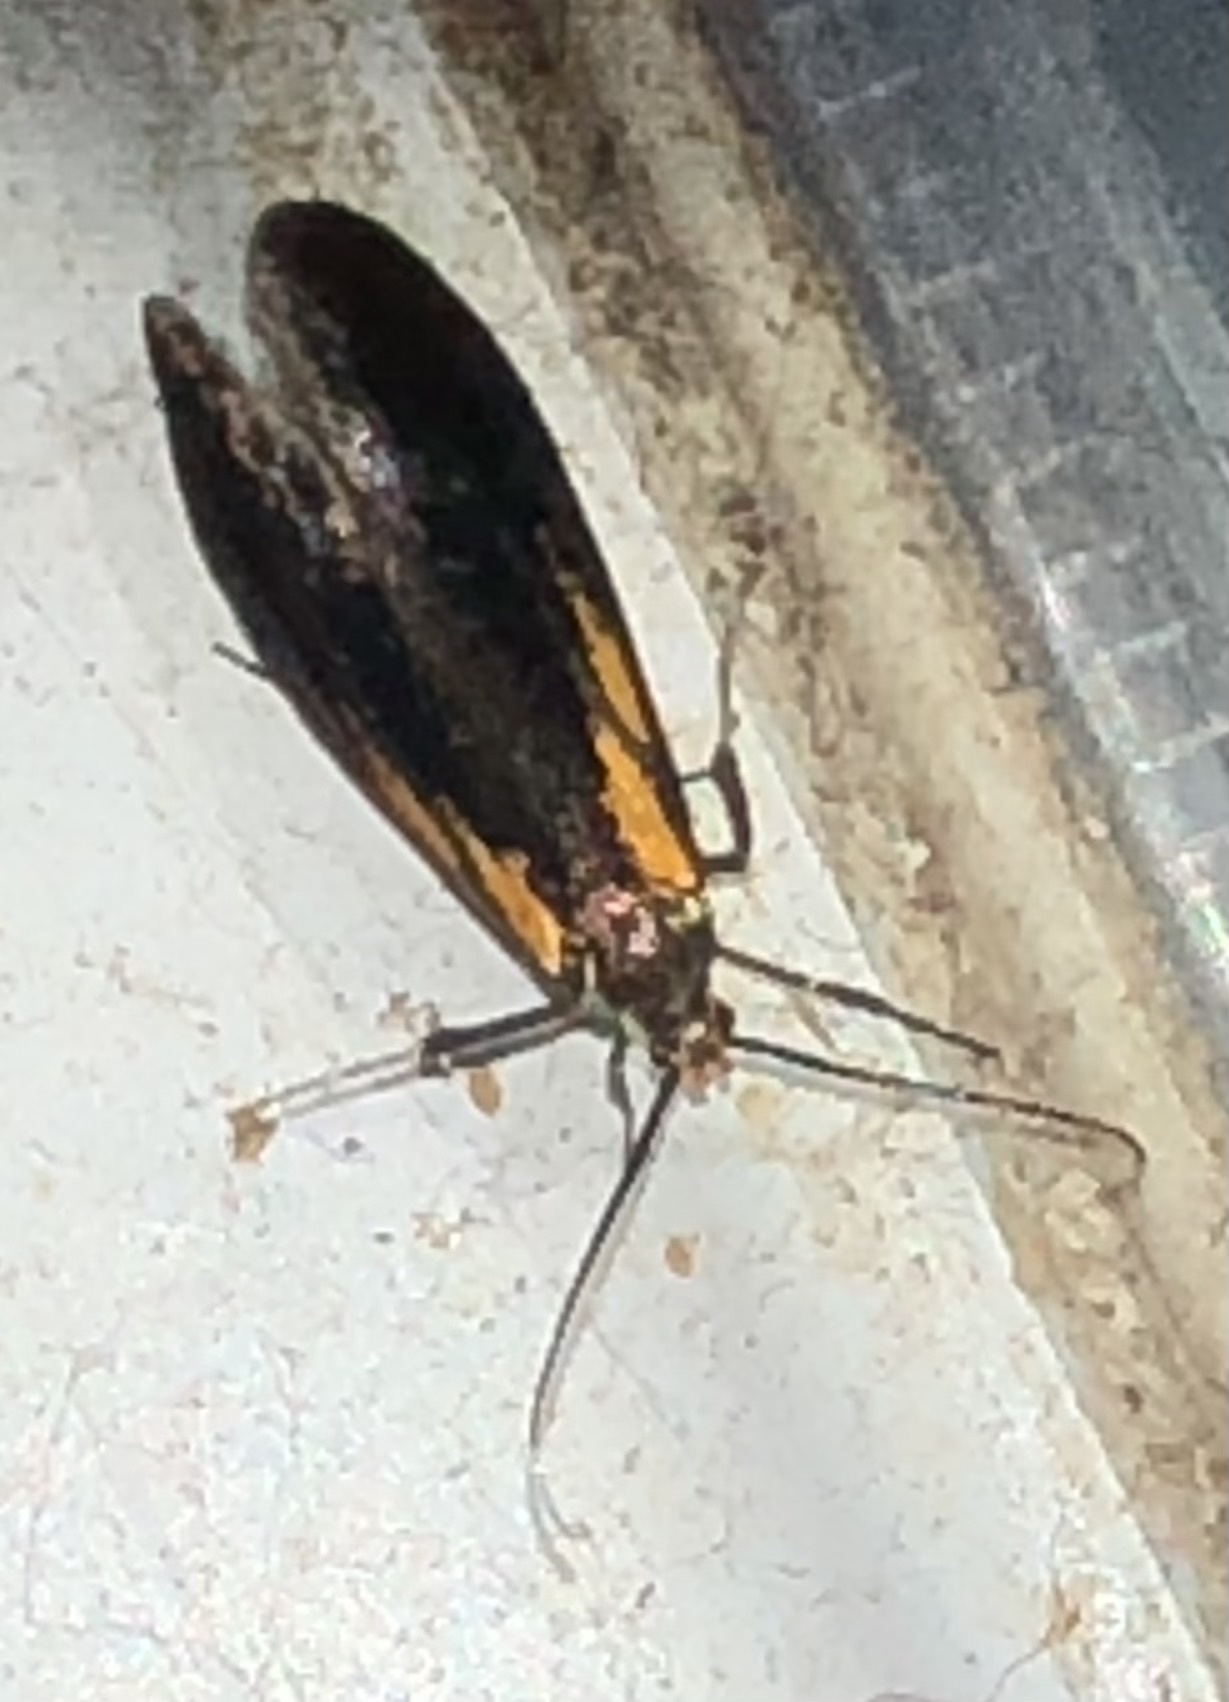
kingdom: Animalia
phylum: Arthropoda
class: Insecta
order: Lepidoptera
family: Oecophoridae
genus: Mathildana
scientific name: Mathildana newmanella
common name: Newman's mathildana moth
